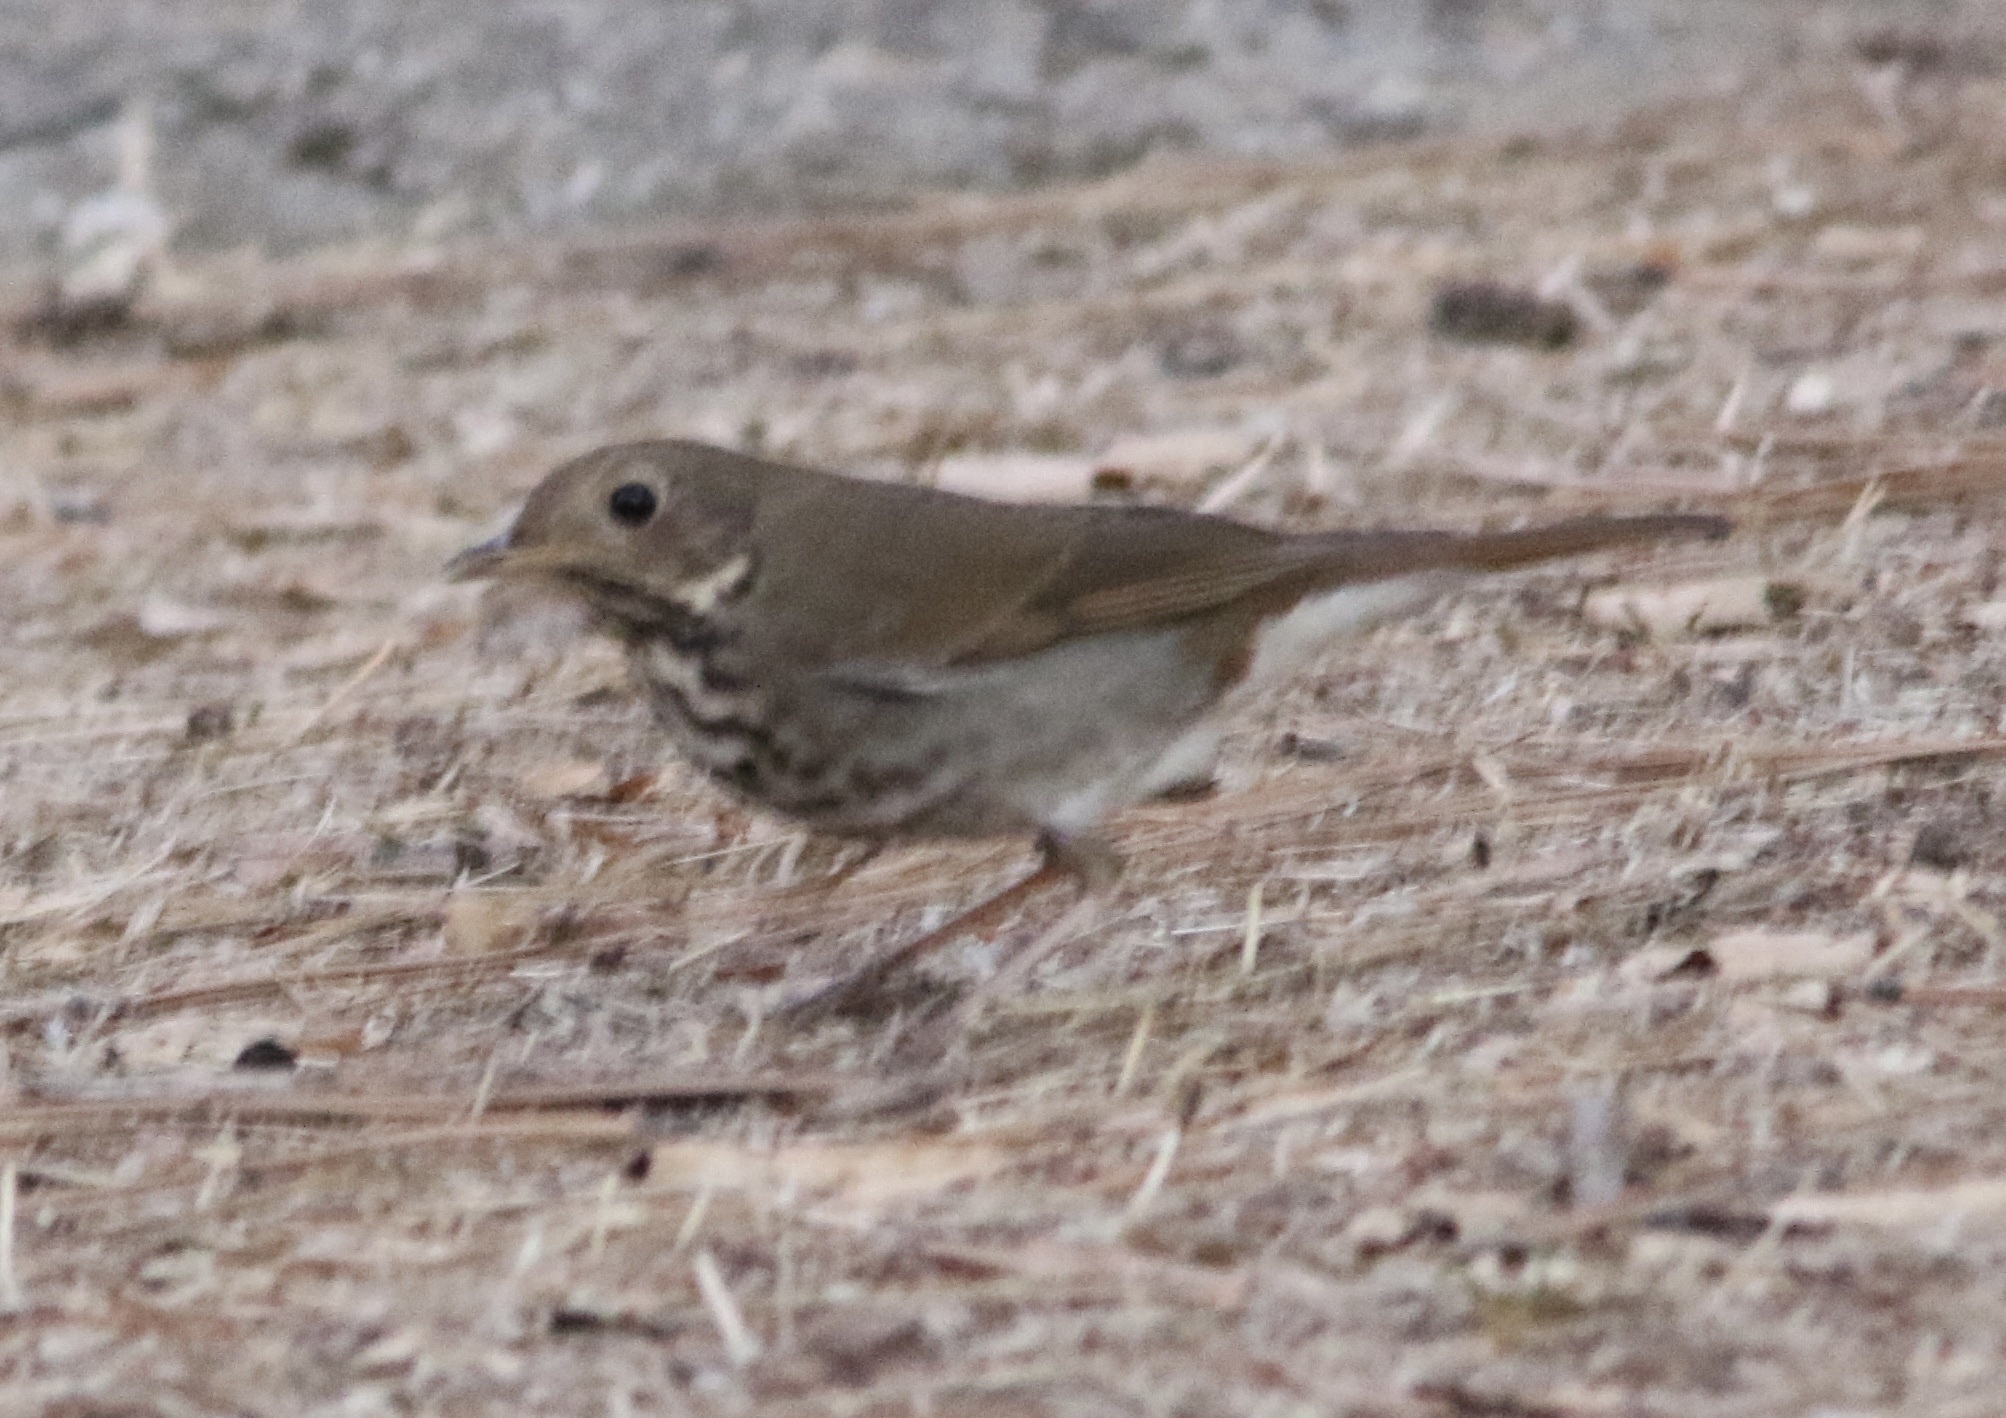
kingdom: Animalia
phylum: Chordata
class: Aves
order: Passeriformes
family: Turdidae
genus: Catharus
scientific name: Catharus guttatus
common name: Hermit thrush
